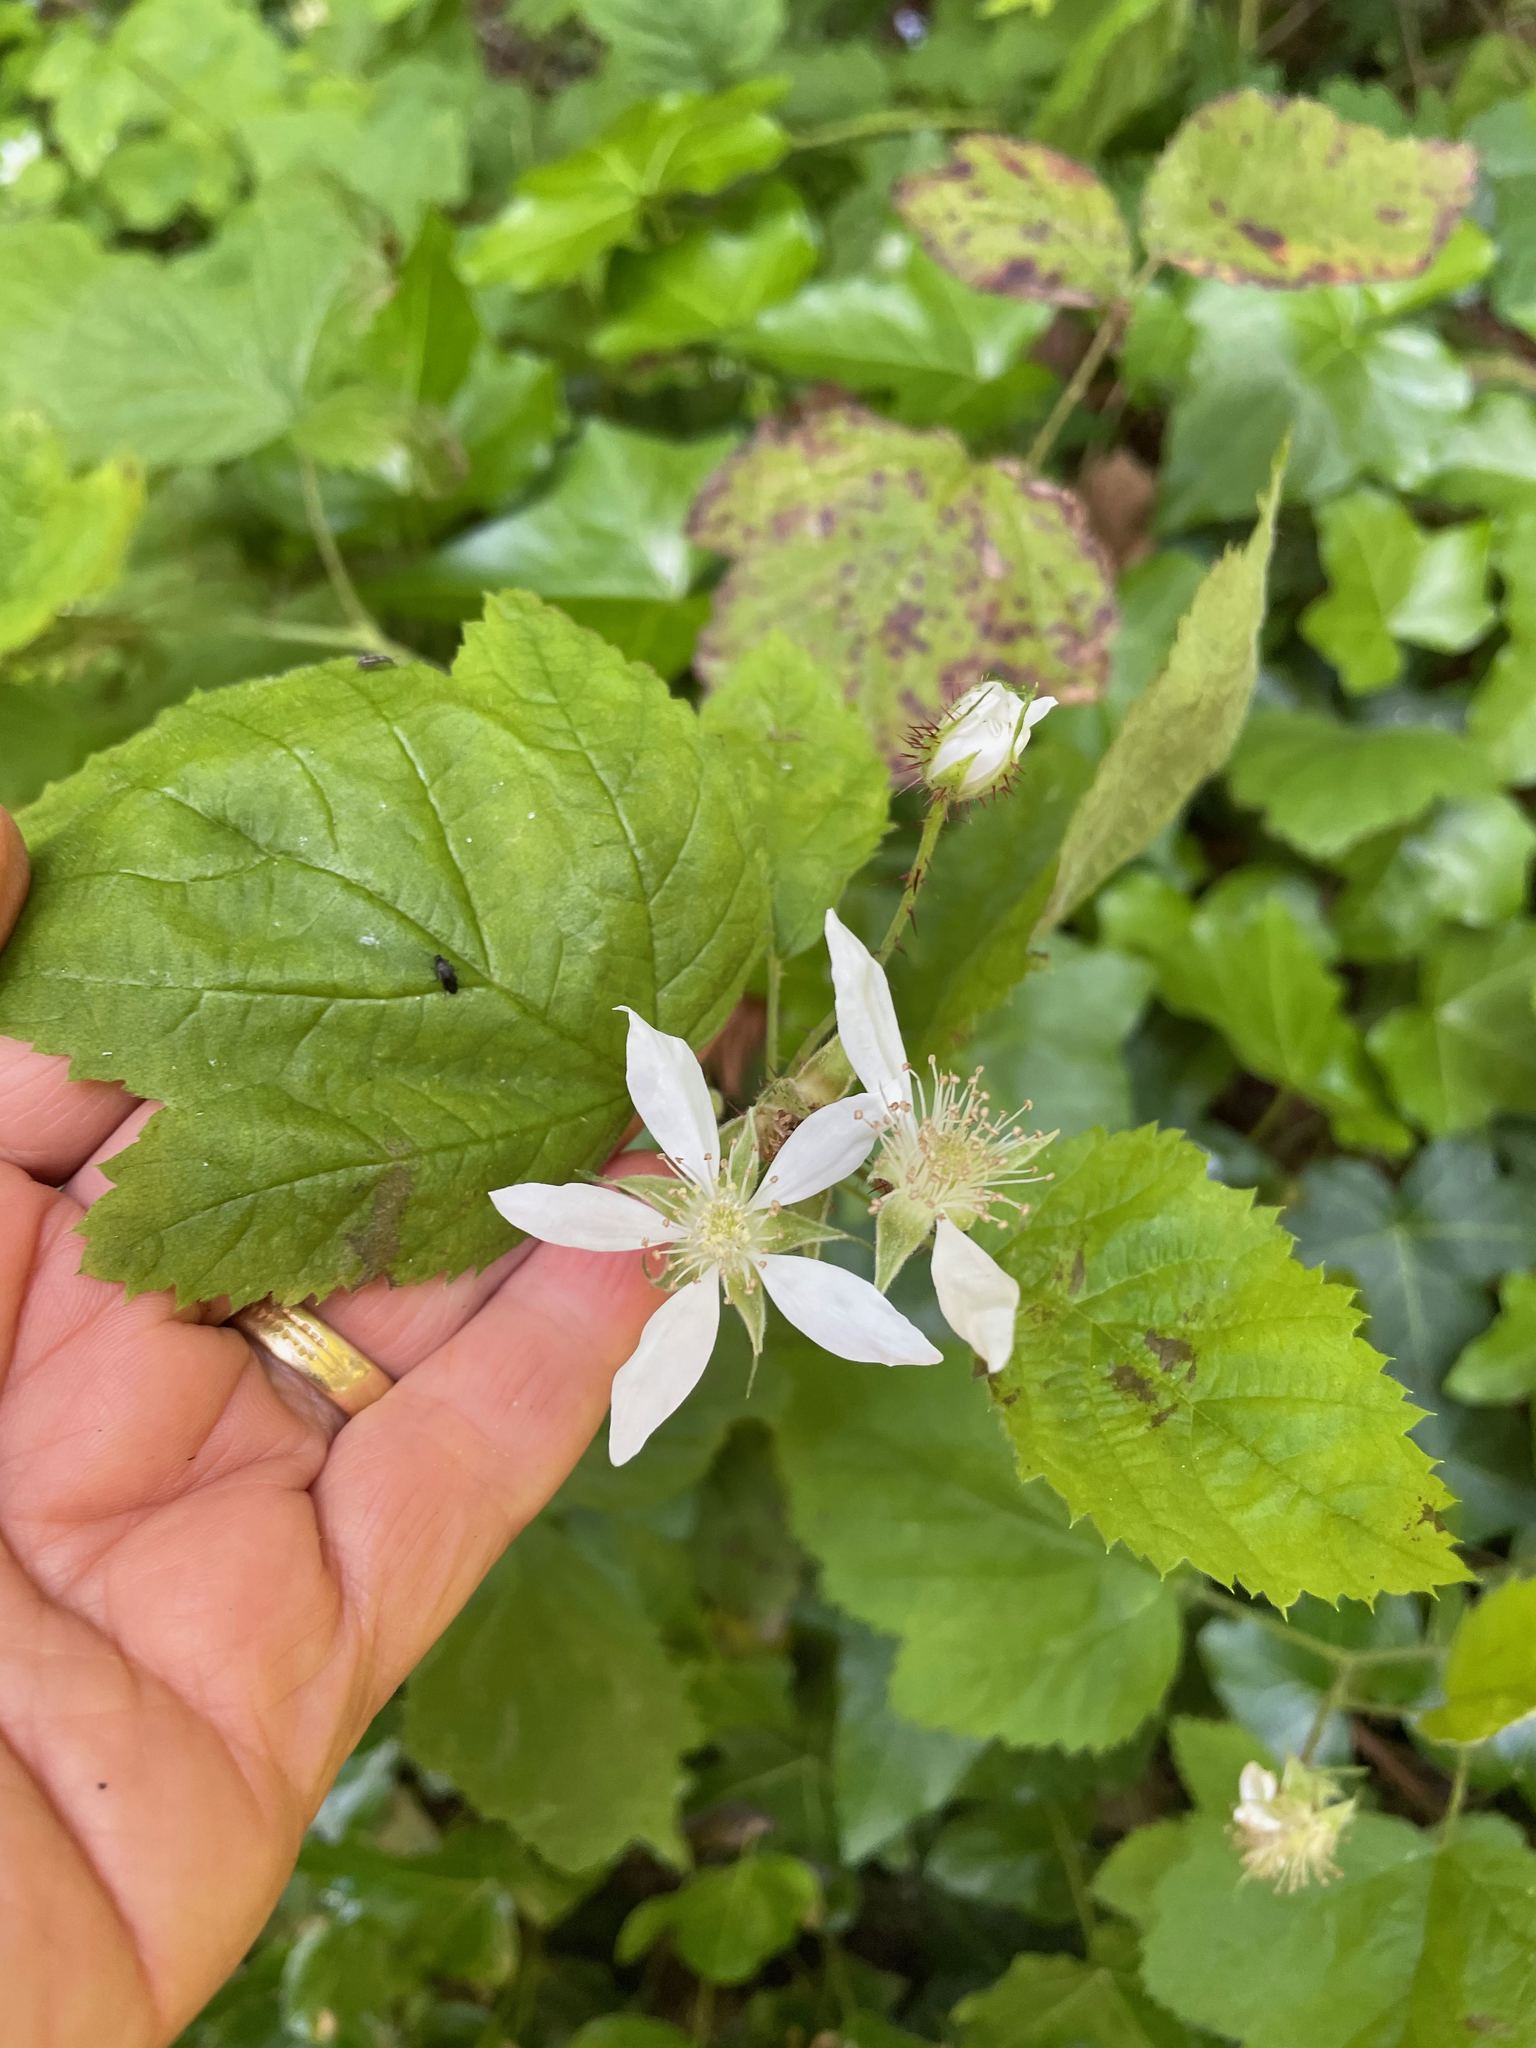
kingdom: Plantae
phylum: Tracheophyta
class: Magnoliopsida
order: Rosales
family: Rosaceae
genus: Rubus
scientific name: Rubus ursinus
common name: Pacific blackberry
